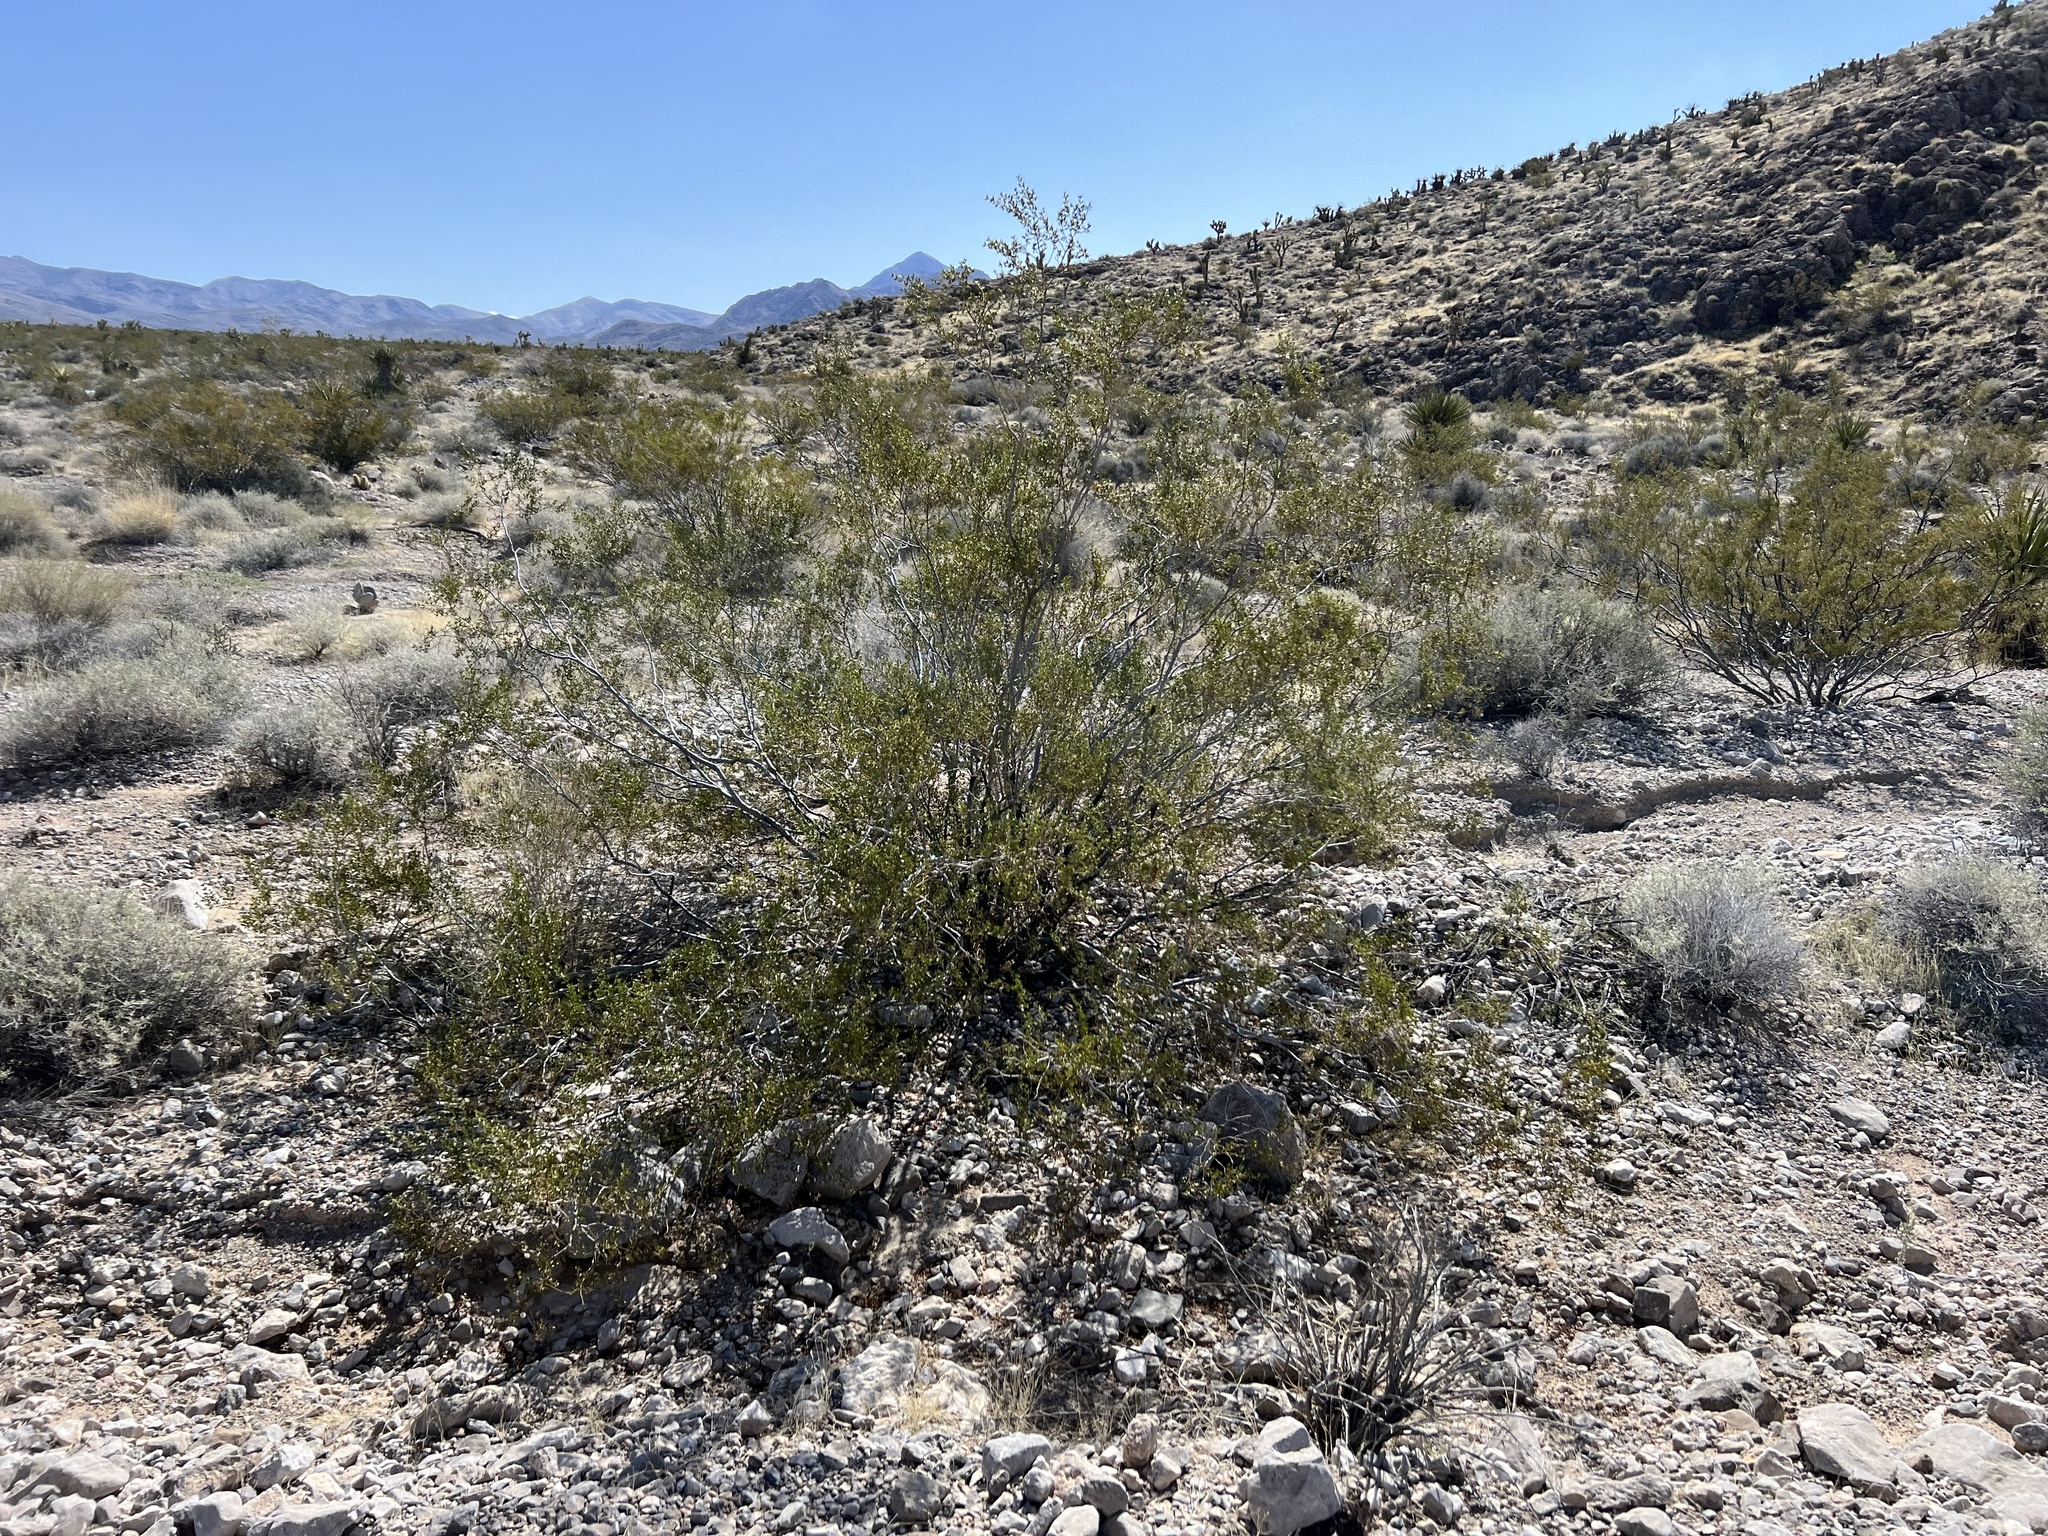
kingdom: Plantae
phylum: Tracheophyta
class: Magnoliopsida
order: Zygophyllales
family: Zygophyllaceae
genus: Larrea
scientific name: Larrea tridentata
